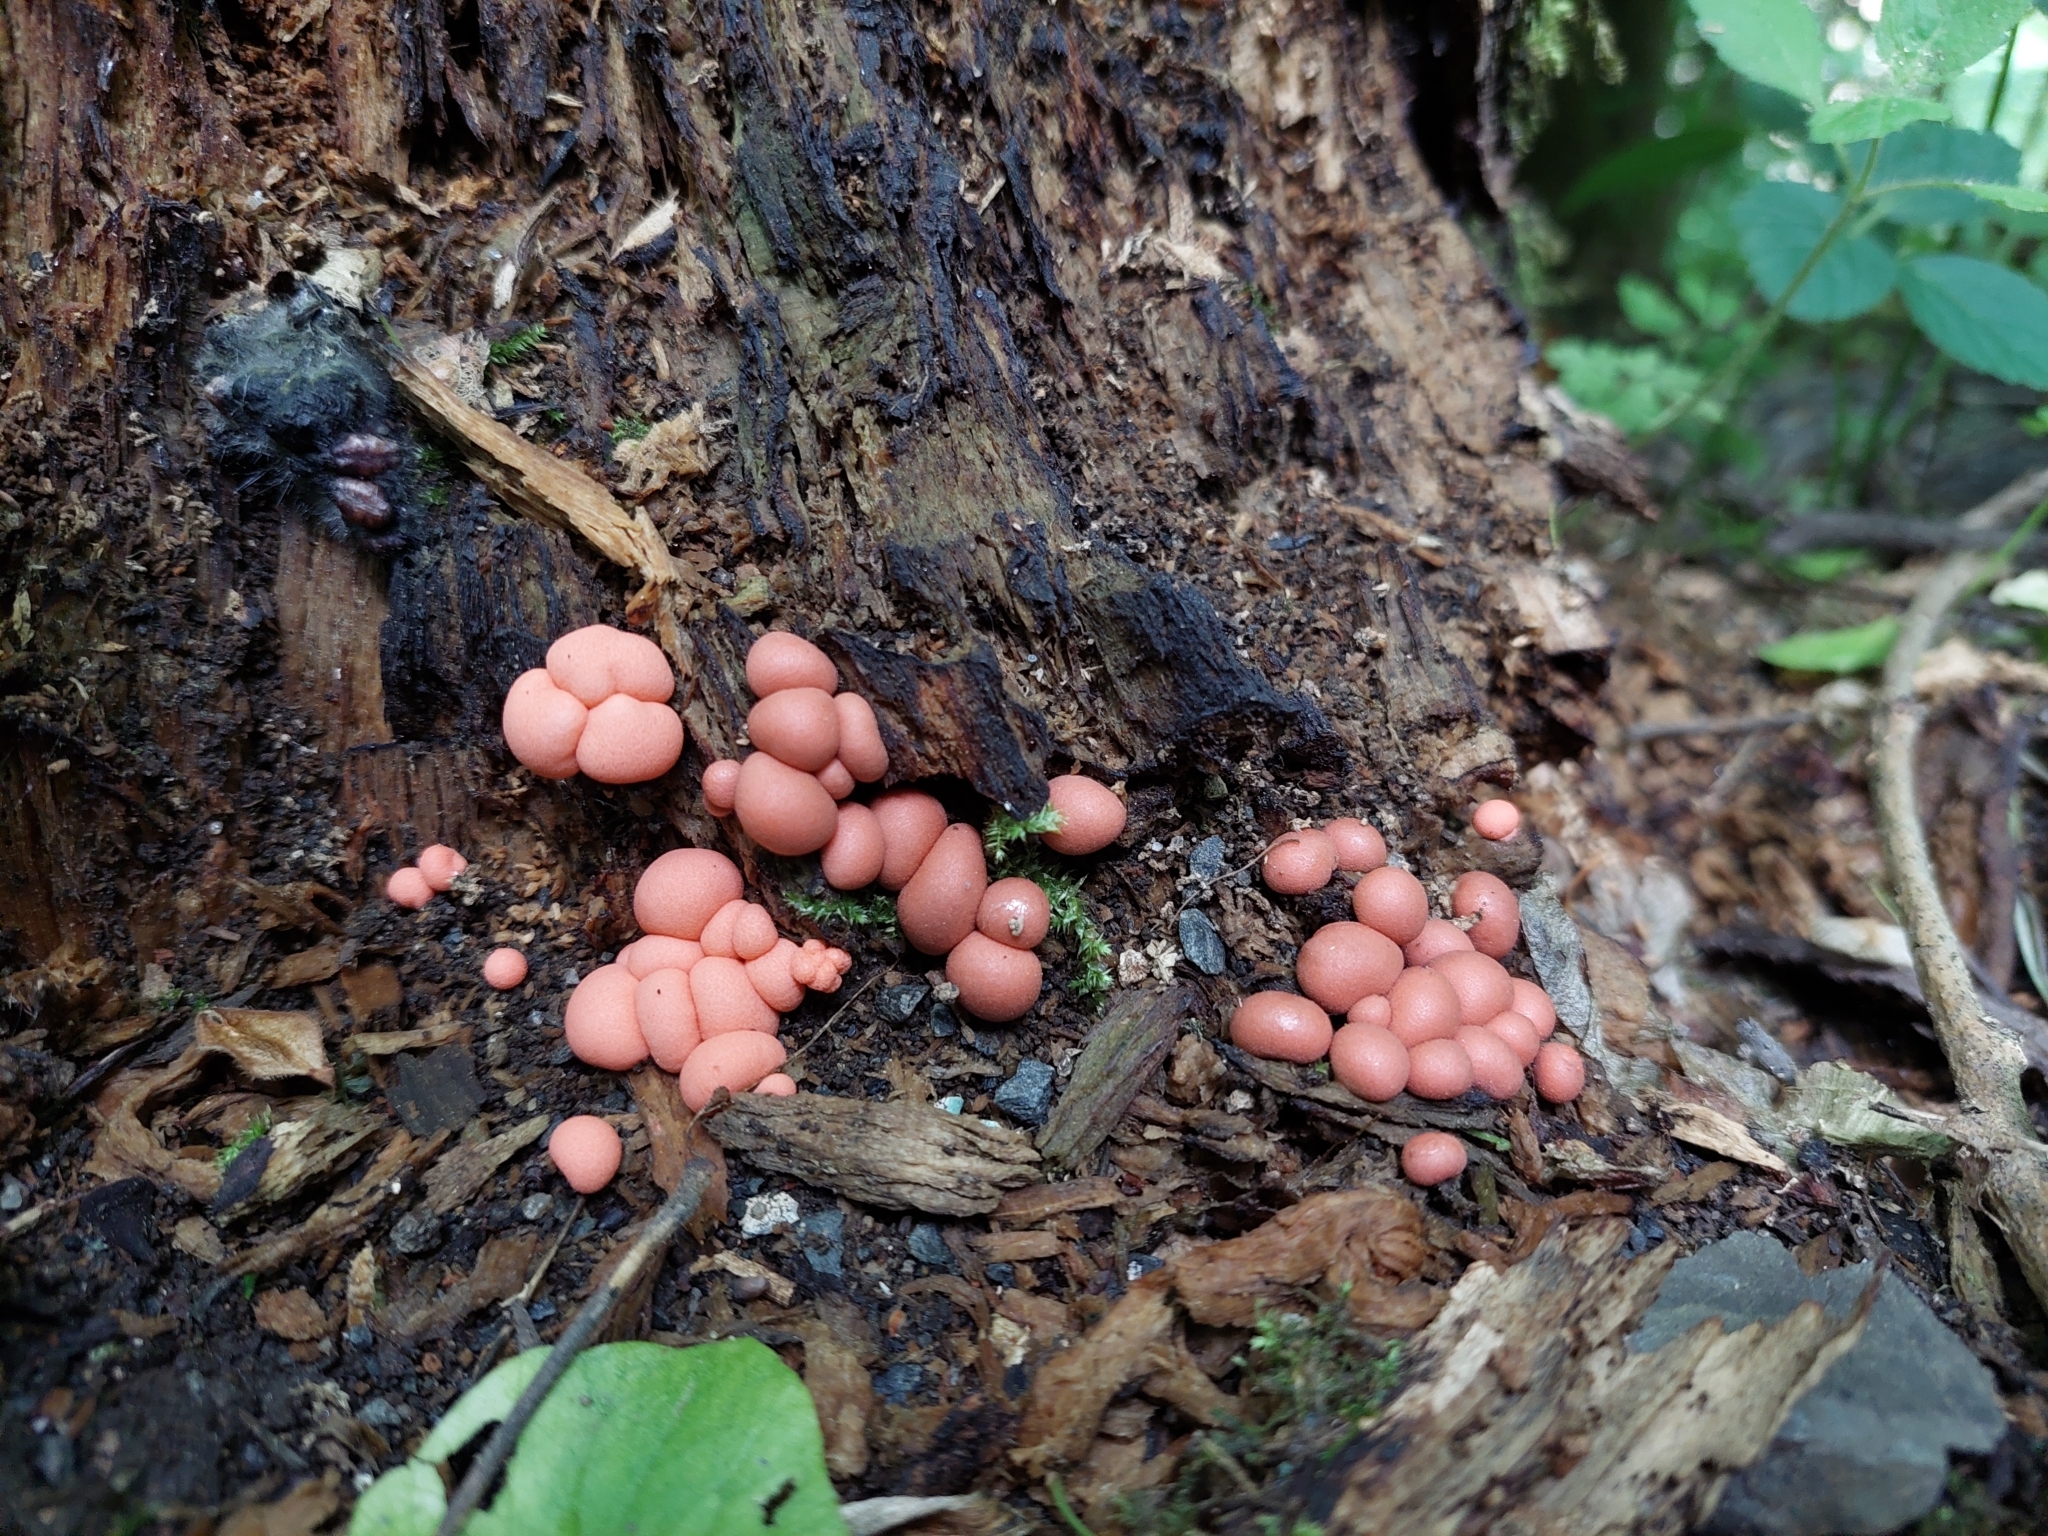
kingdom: Protozoa
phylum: Mycetozoa
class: Myxomycetes
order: Cribrariales
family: Tubiferaceae
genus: Lycogala
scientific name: Lycogala epidendrum
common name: Wolf's milk
